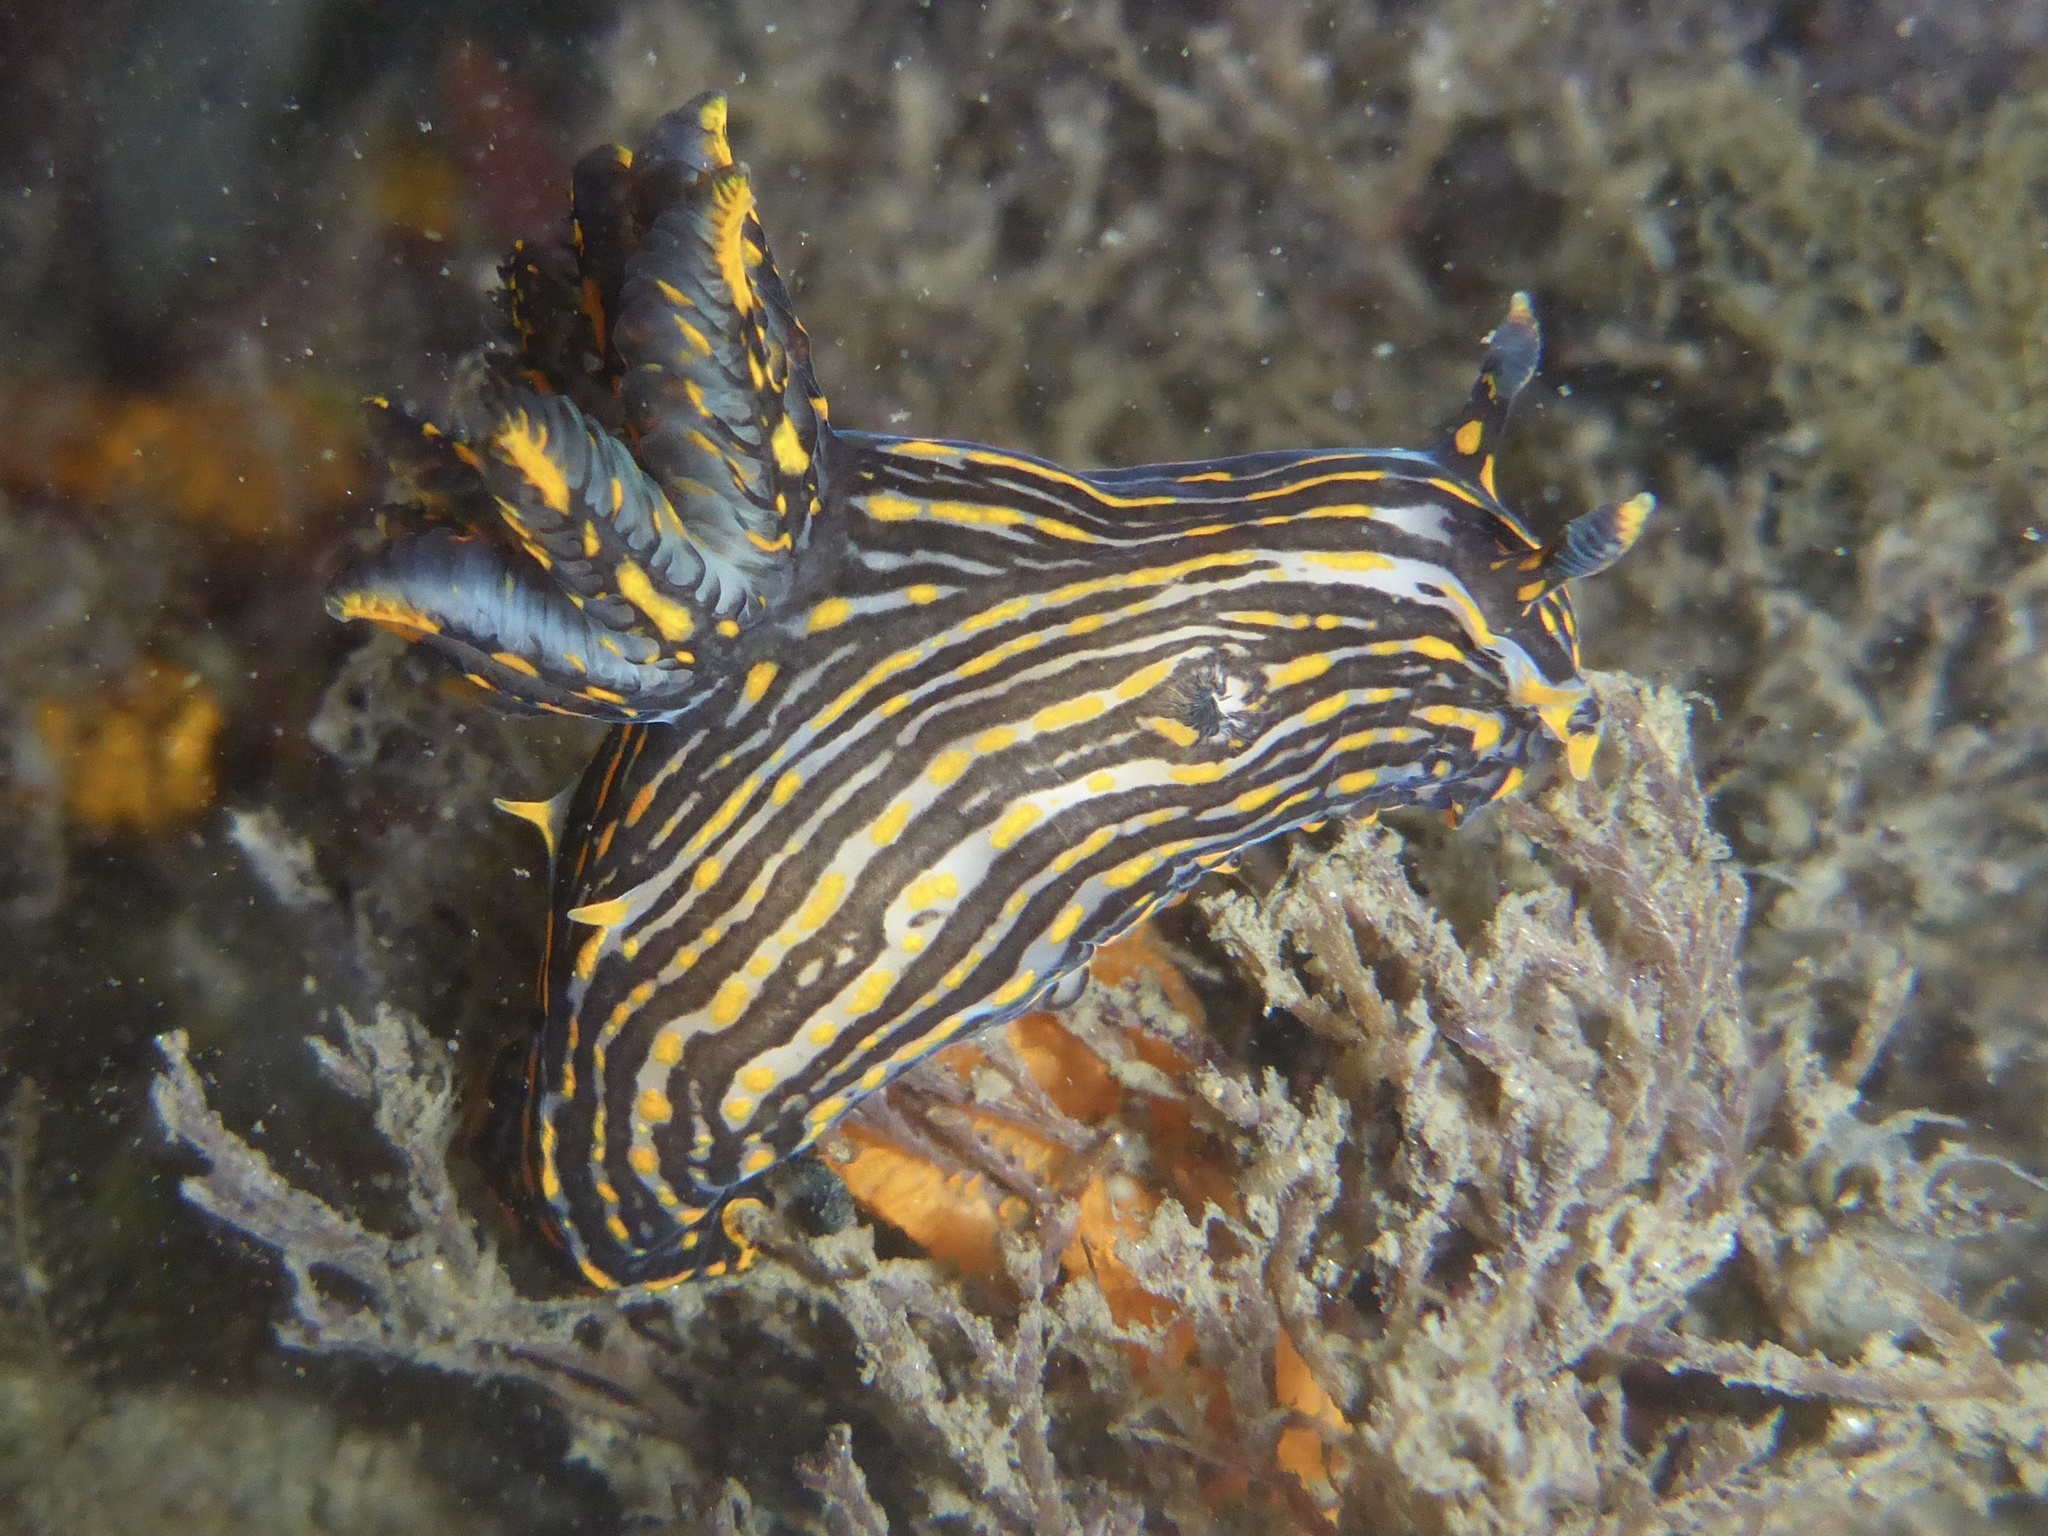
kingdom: Animalia
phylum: Mollusca
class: Gastropoda
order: Nudibranchia
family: Polyceridae
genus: Polycera
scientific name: Polycera atra
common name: Orange-spike polycera
